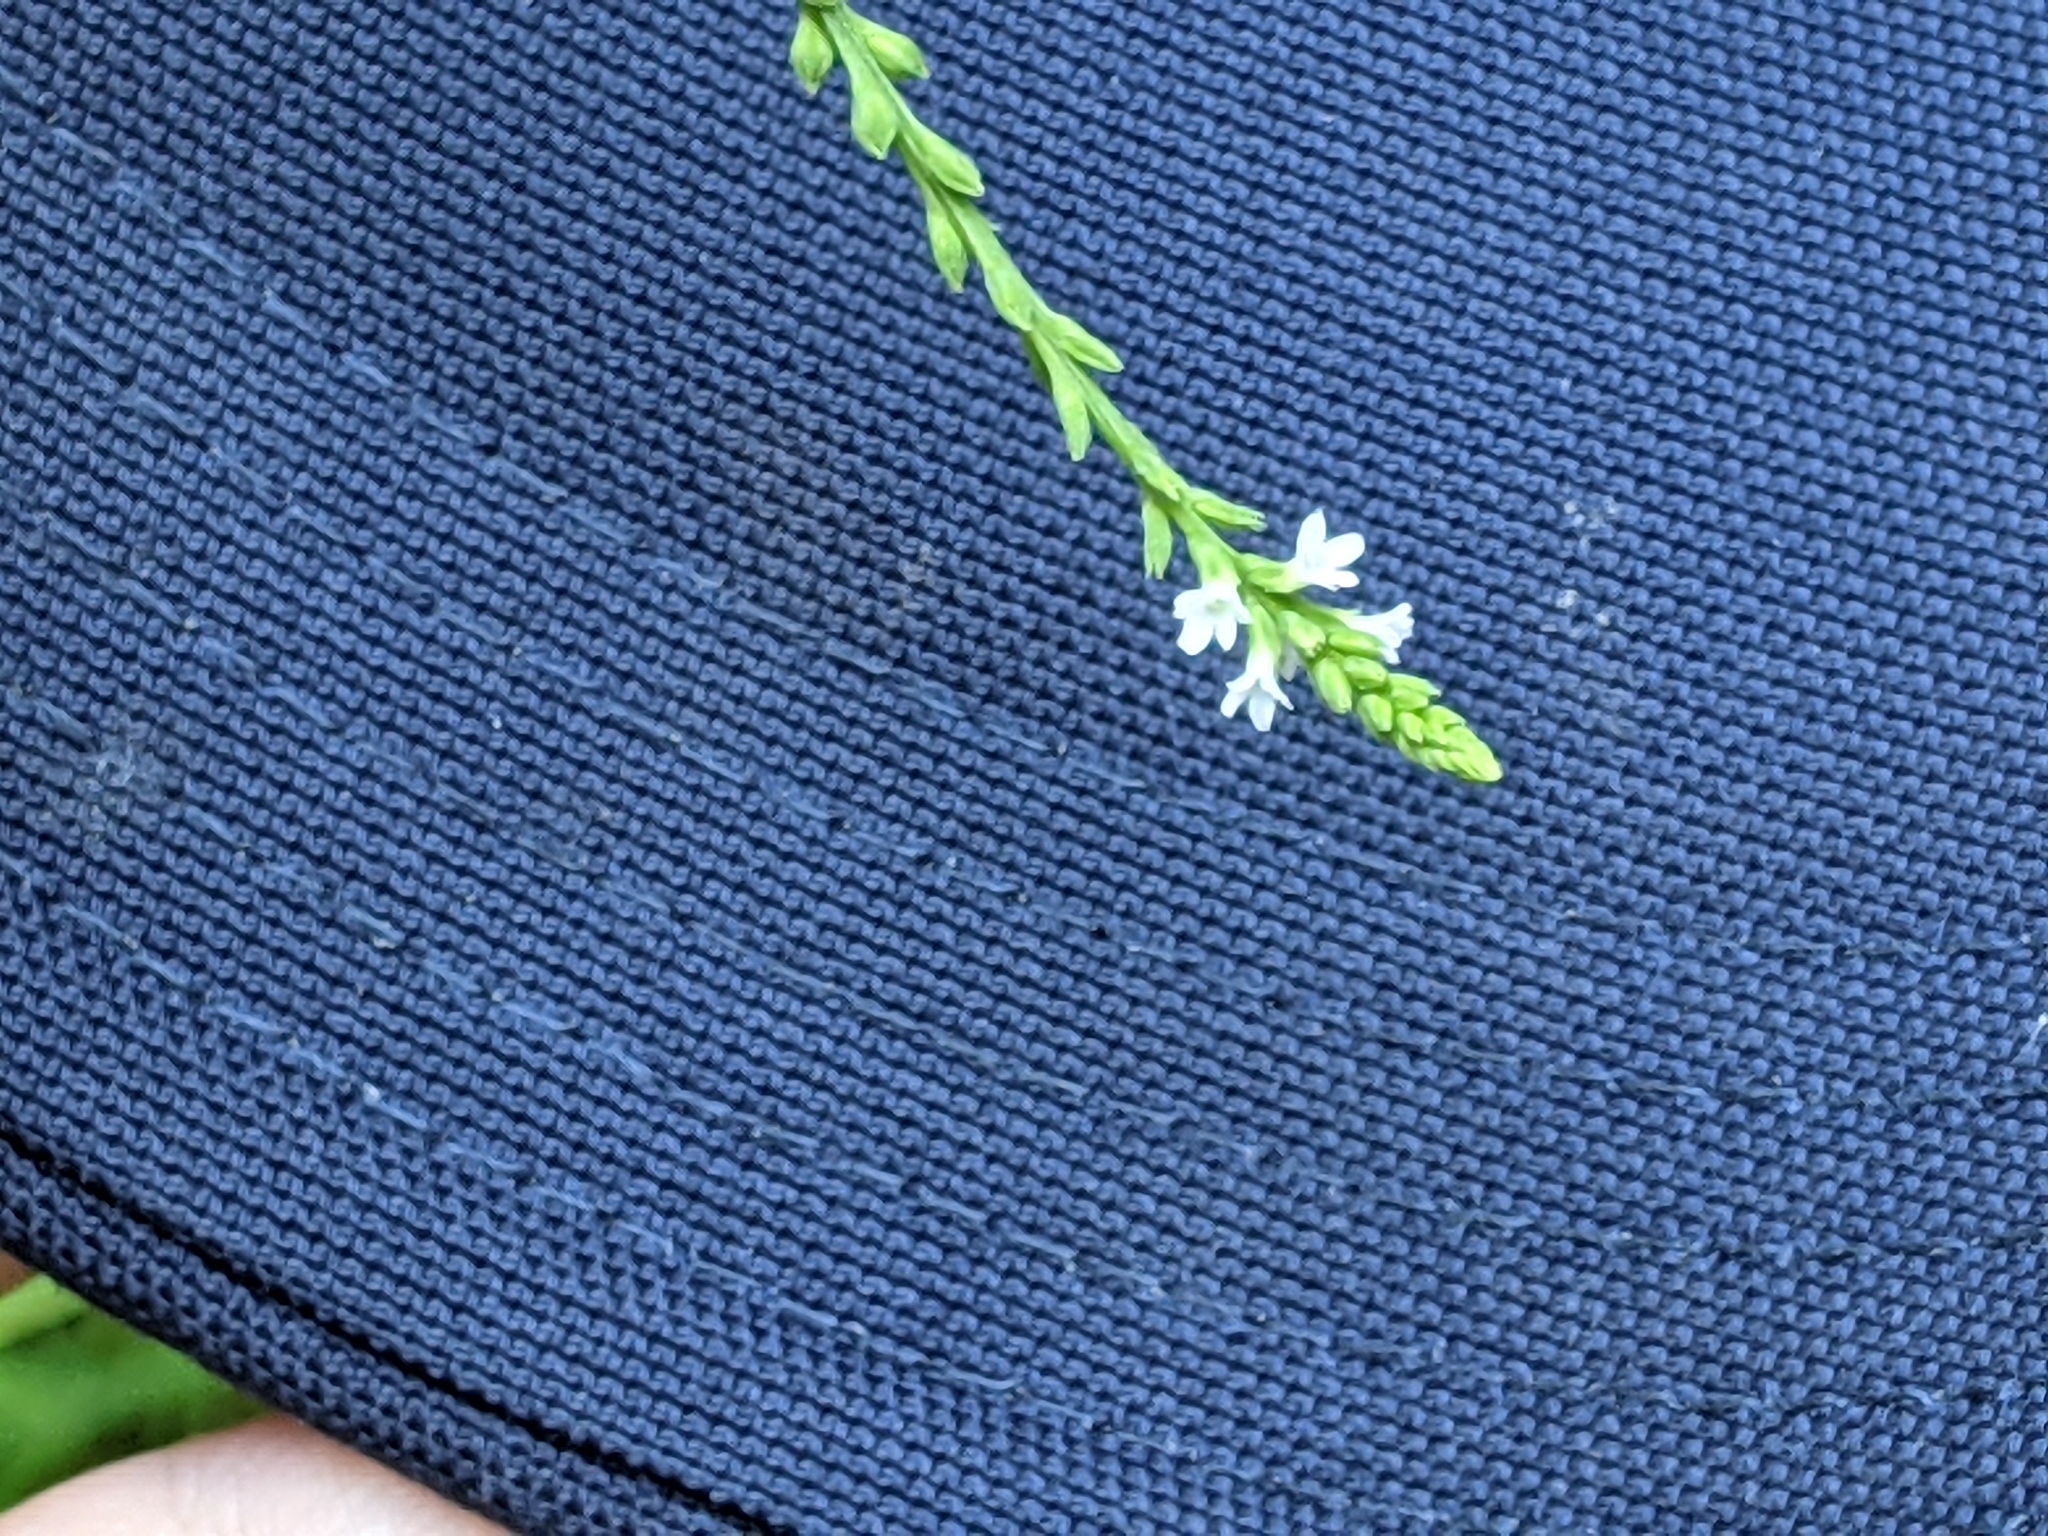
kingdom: Plantae
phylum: Tracheophyta
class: Magnoliopsida
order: Lamiales
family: Verbenaceae
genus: Verbena
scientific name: Verbena urticifolia
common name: Nettle-leaved vervain
